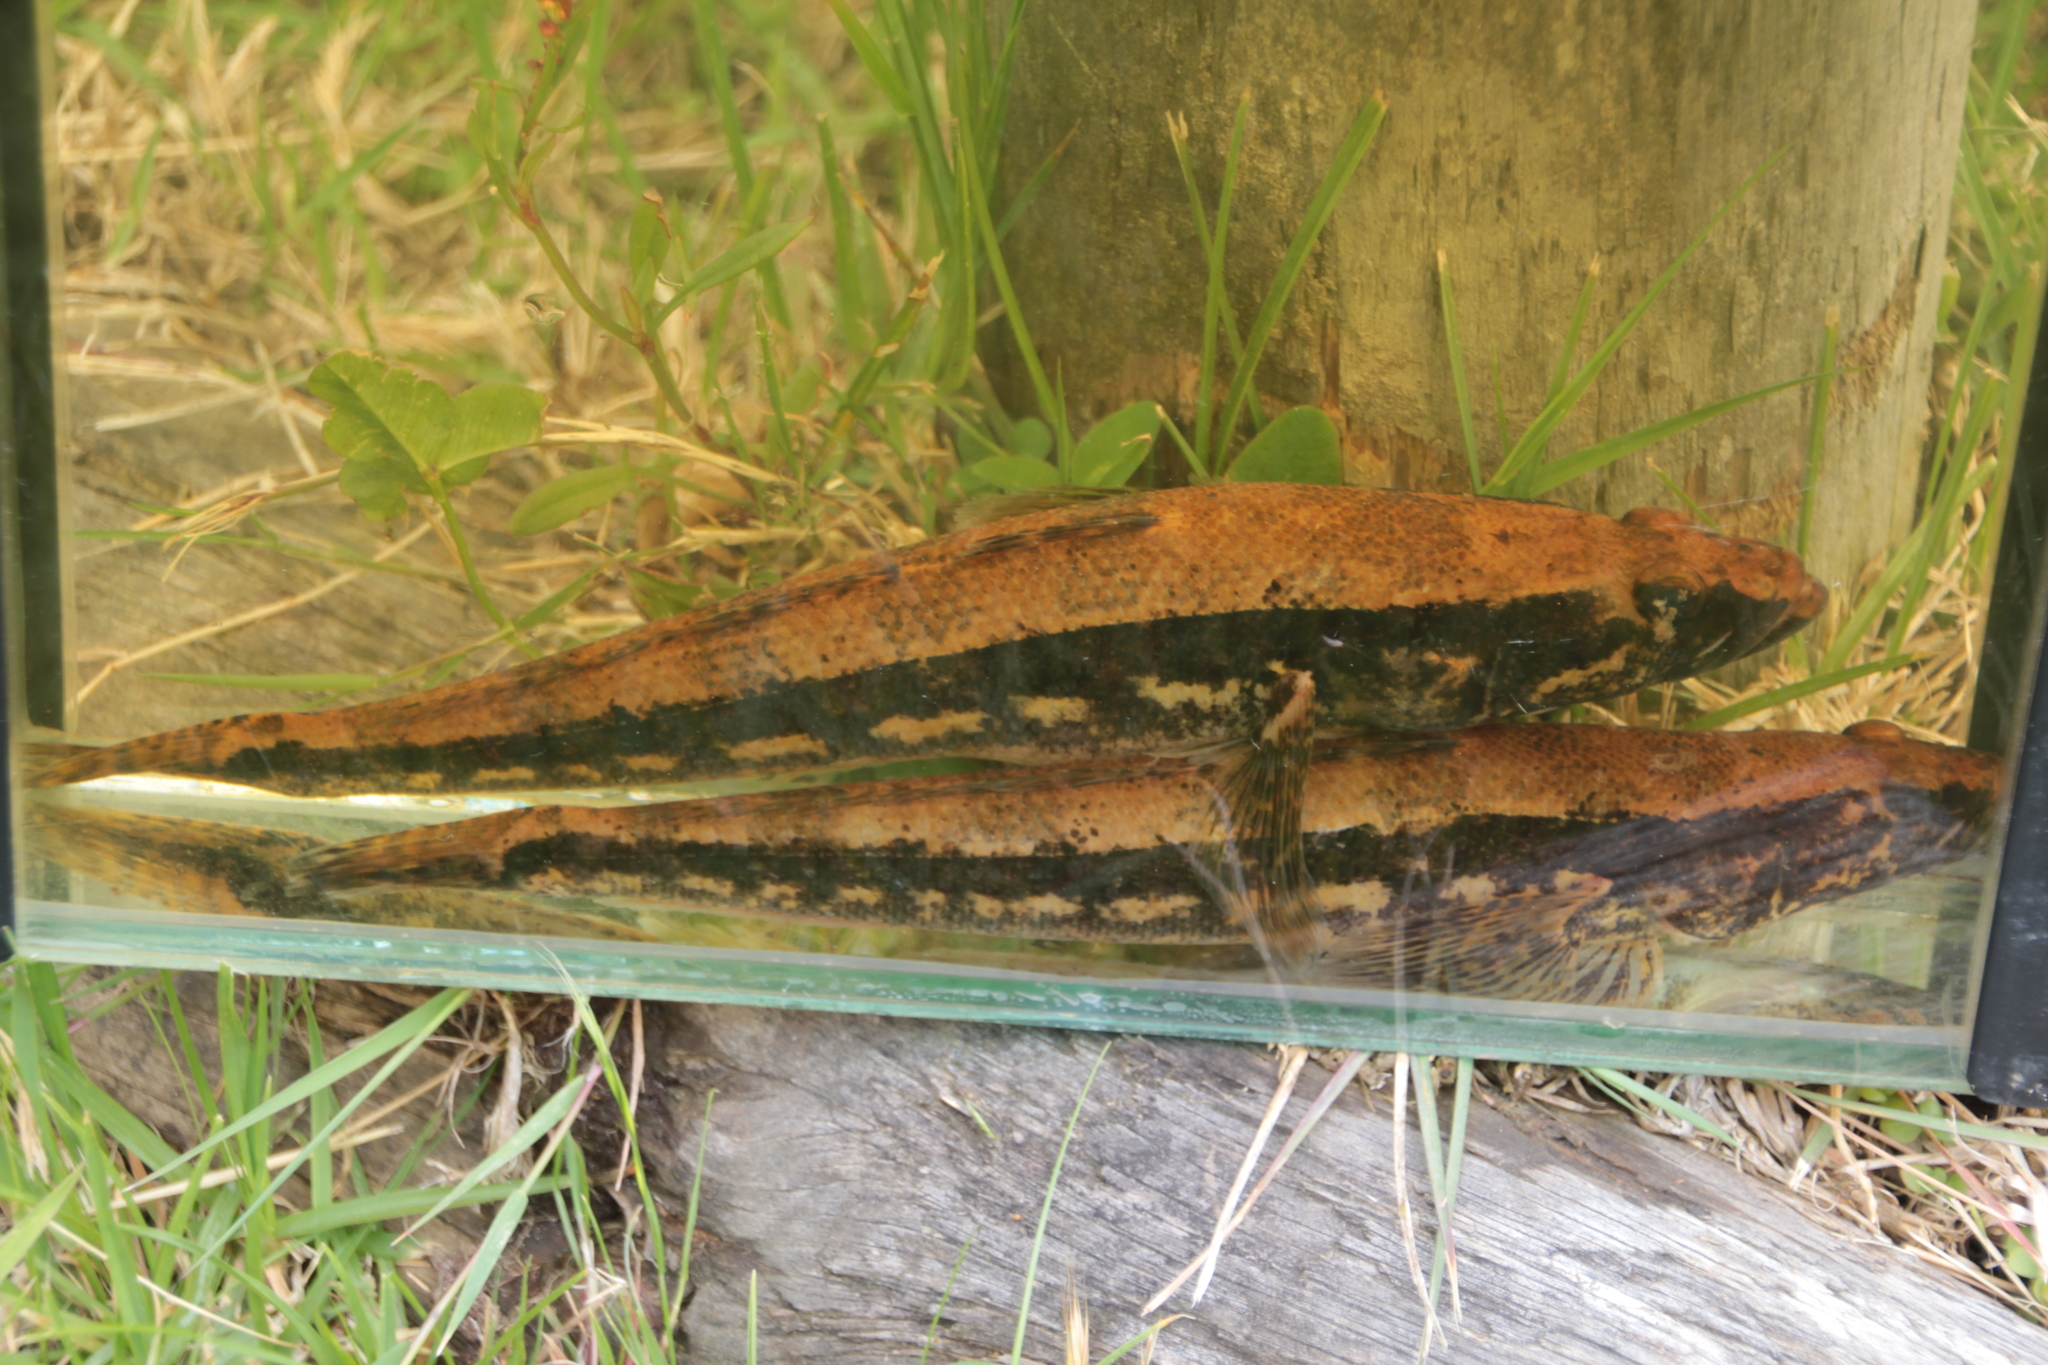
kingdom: Animalia
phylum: Chordata
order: Perciformes
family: Pseudaphritidae
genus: Pseudaphritis
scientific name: Pseudaphritis urvillii
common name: Tupong
